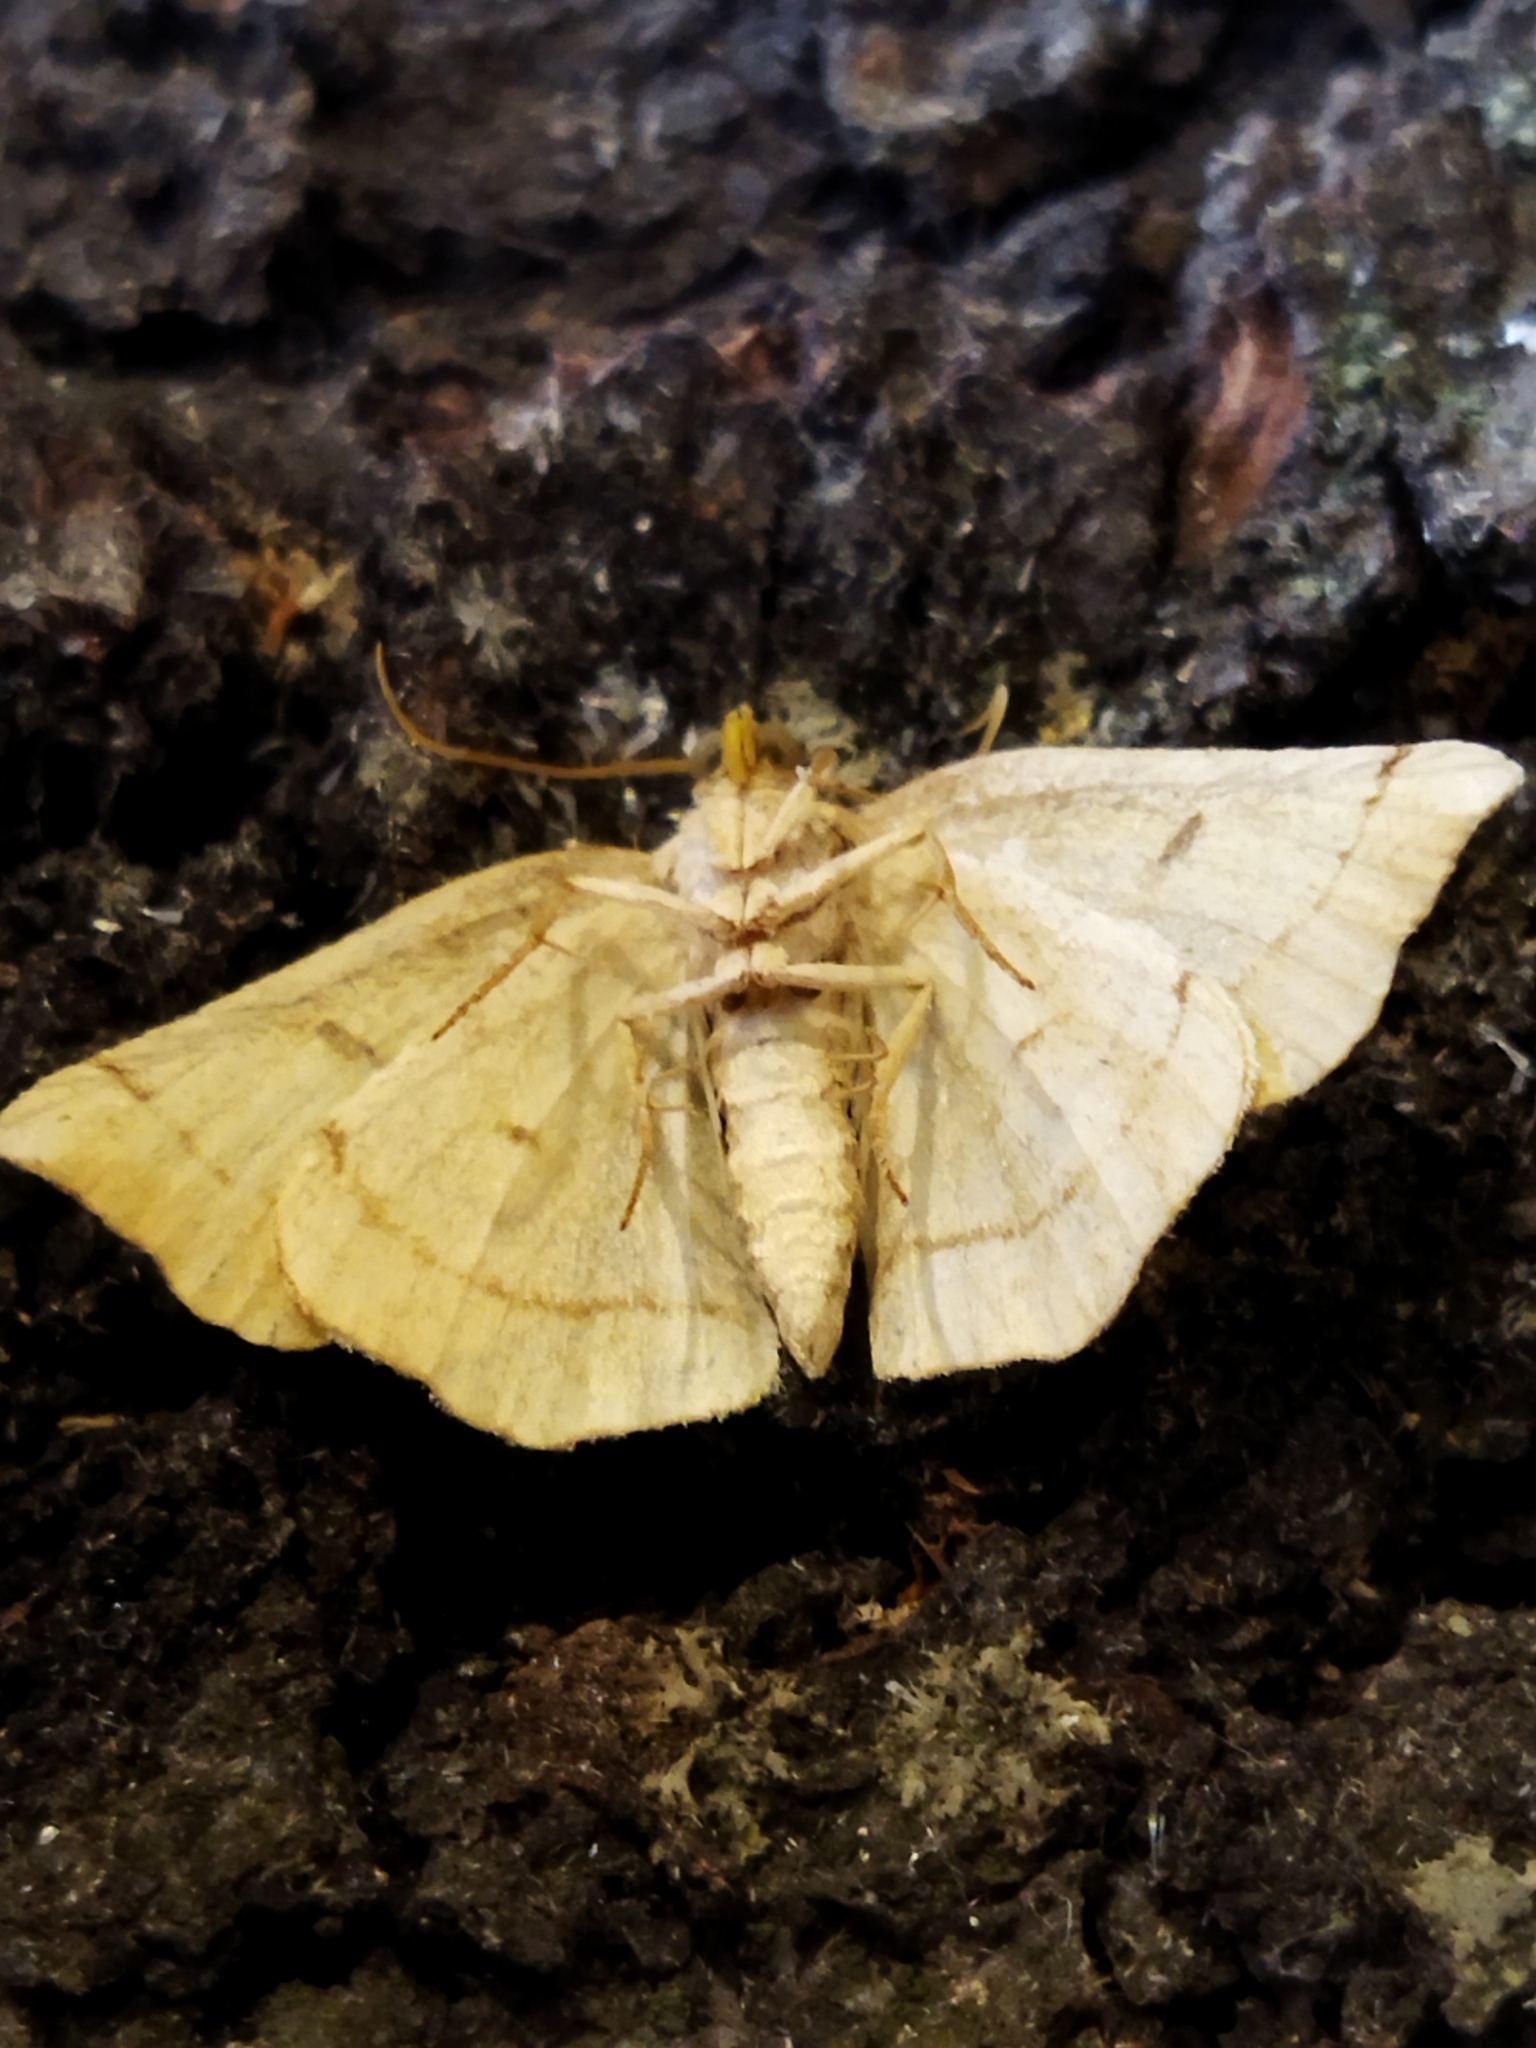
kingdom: Animalia
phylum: Arthropoda
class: Insecta
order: Lepidoptera
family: Geometridae
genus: Eilicrinia
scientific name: Eilicrinia trinotata
